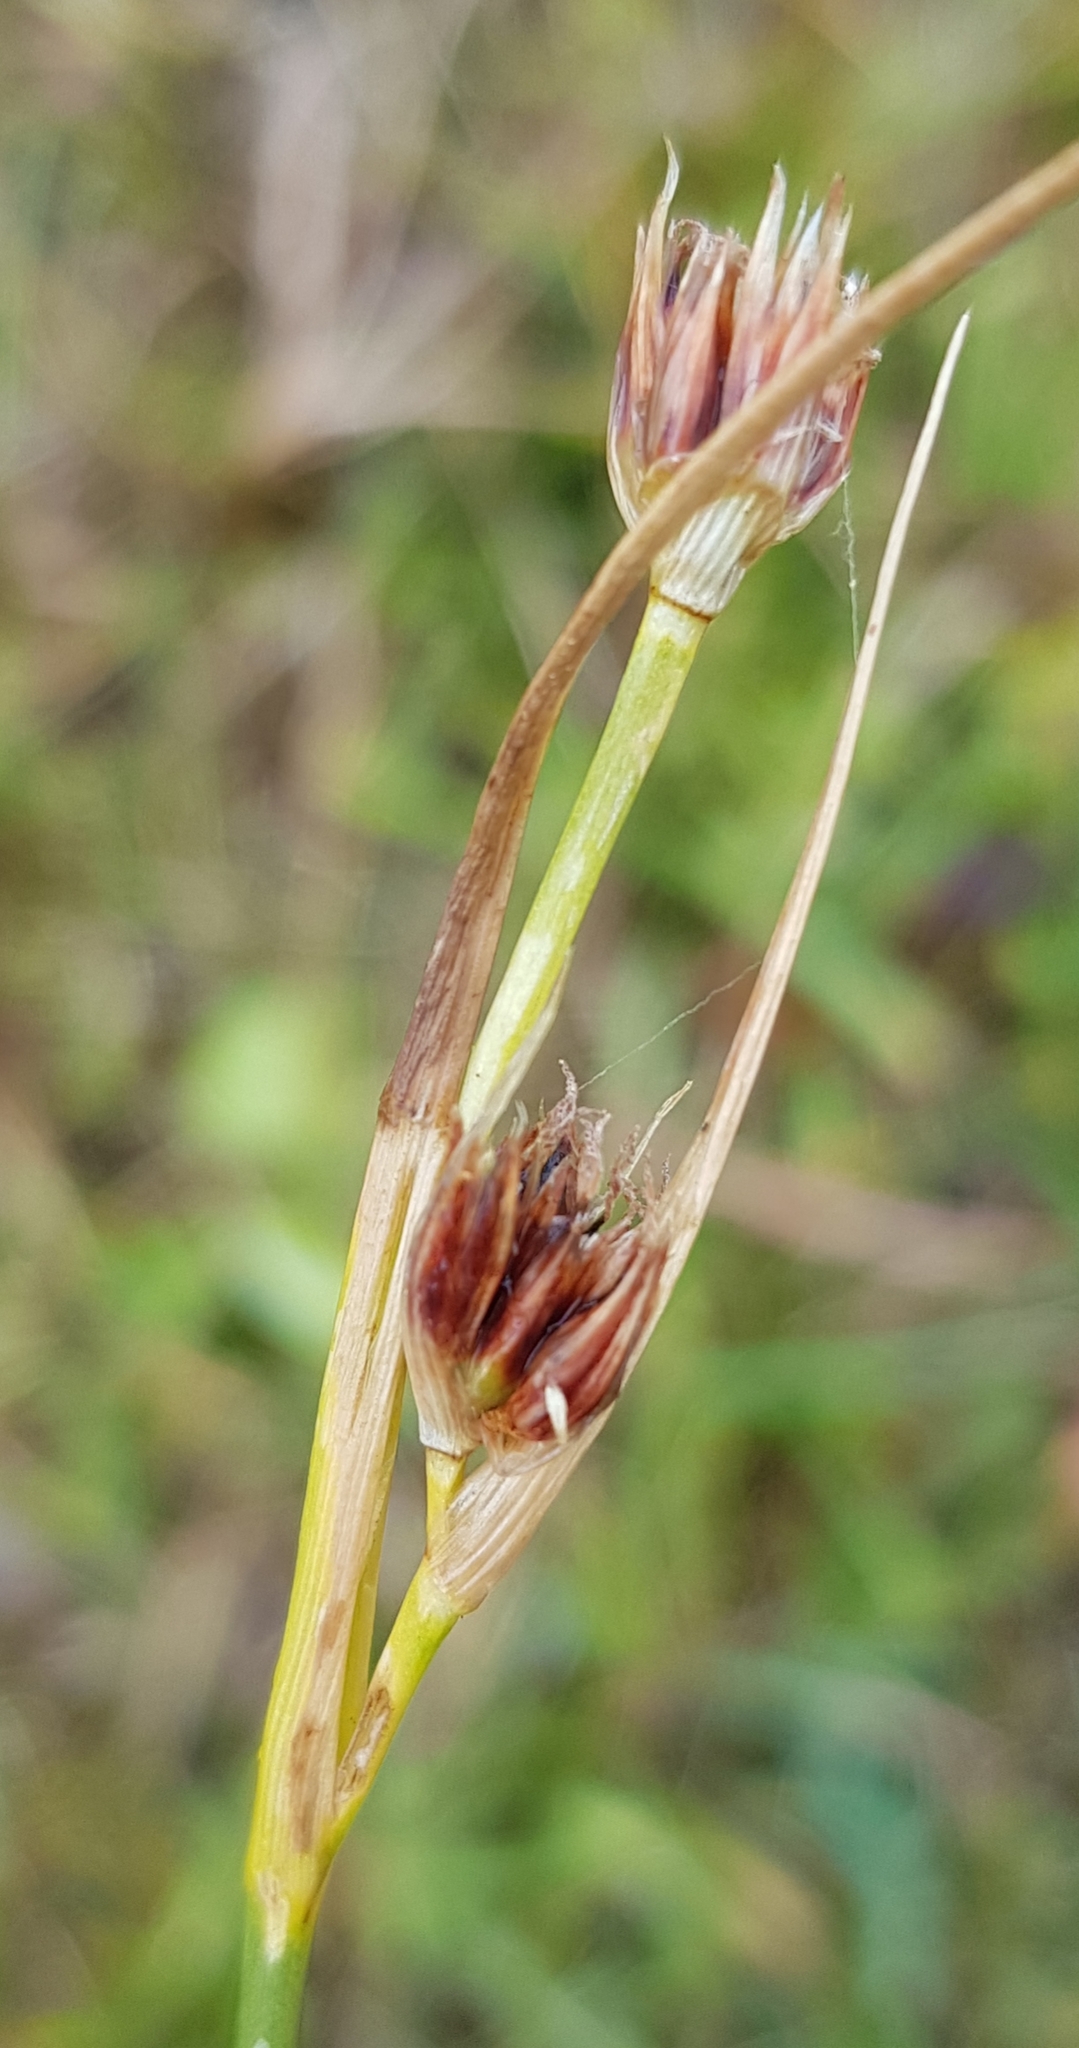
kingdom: Plantae
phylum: Tracheophyta
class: Liliopsida
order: Poales
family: Juncaceae
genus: Juncus
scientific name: Juncus castaneus
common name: Chestnut rush
